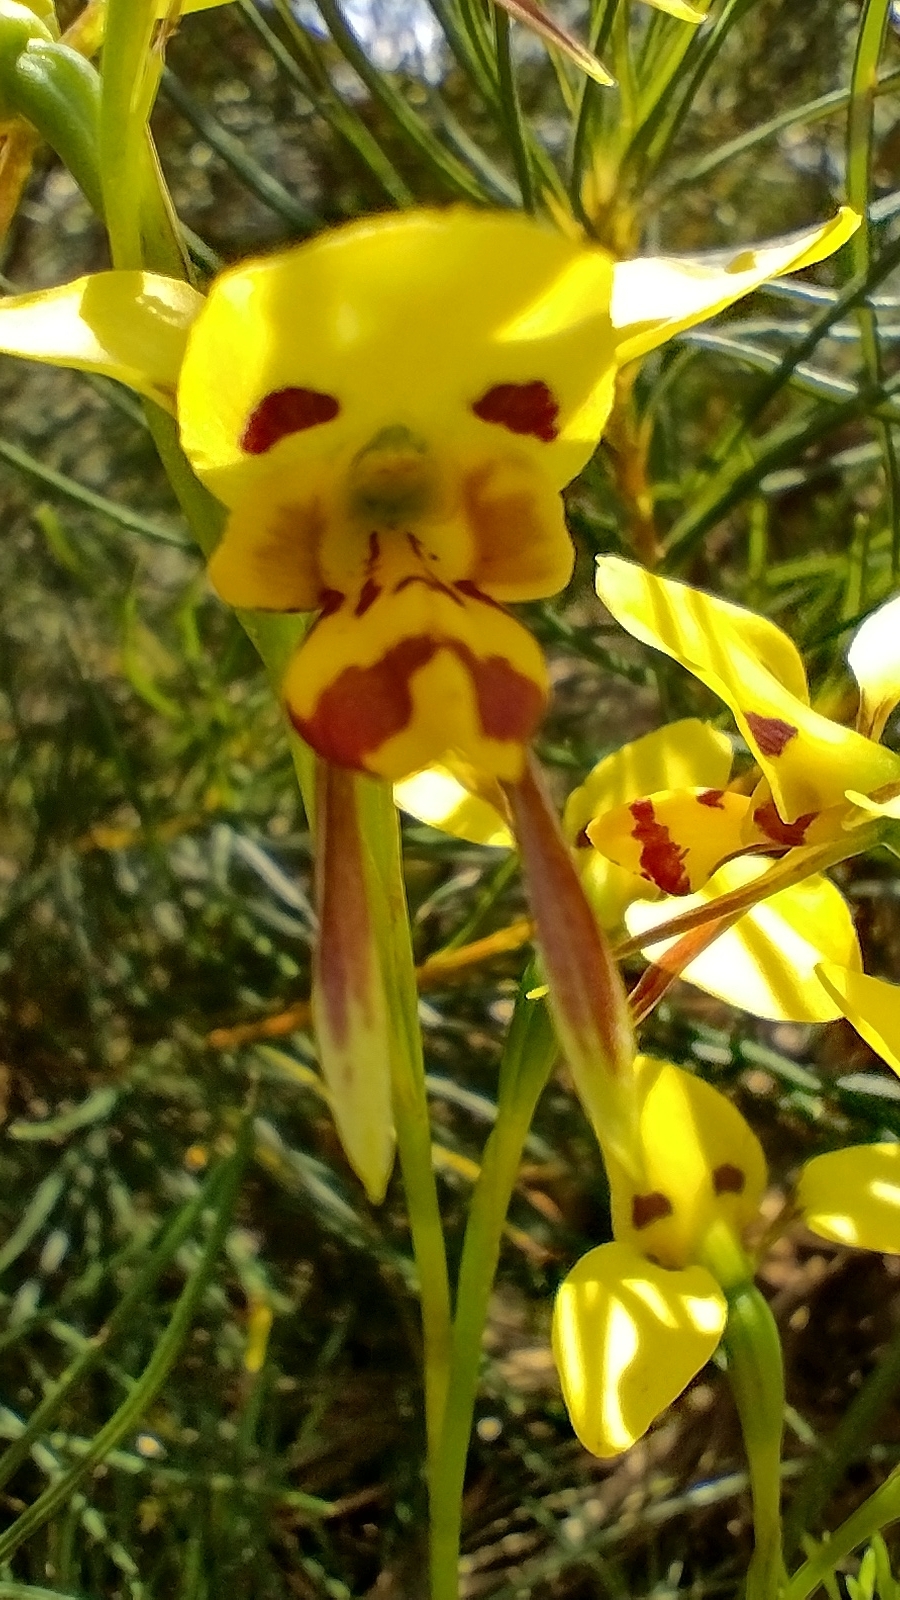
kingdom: Plantae
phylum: Tracheophyta
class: Liliopsida
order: Asparagales
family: Orchidaceae
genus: Diuris
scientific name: Diuris sulphurea
